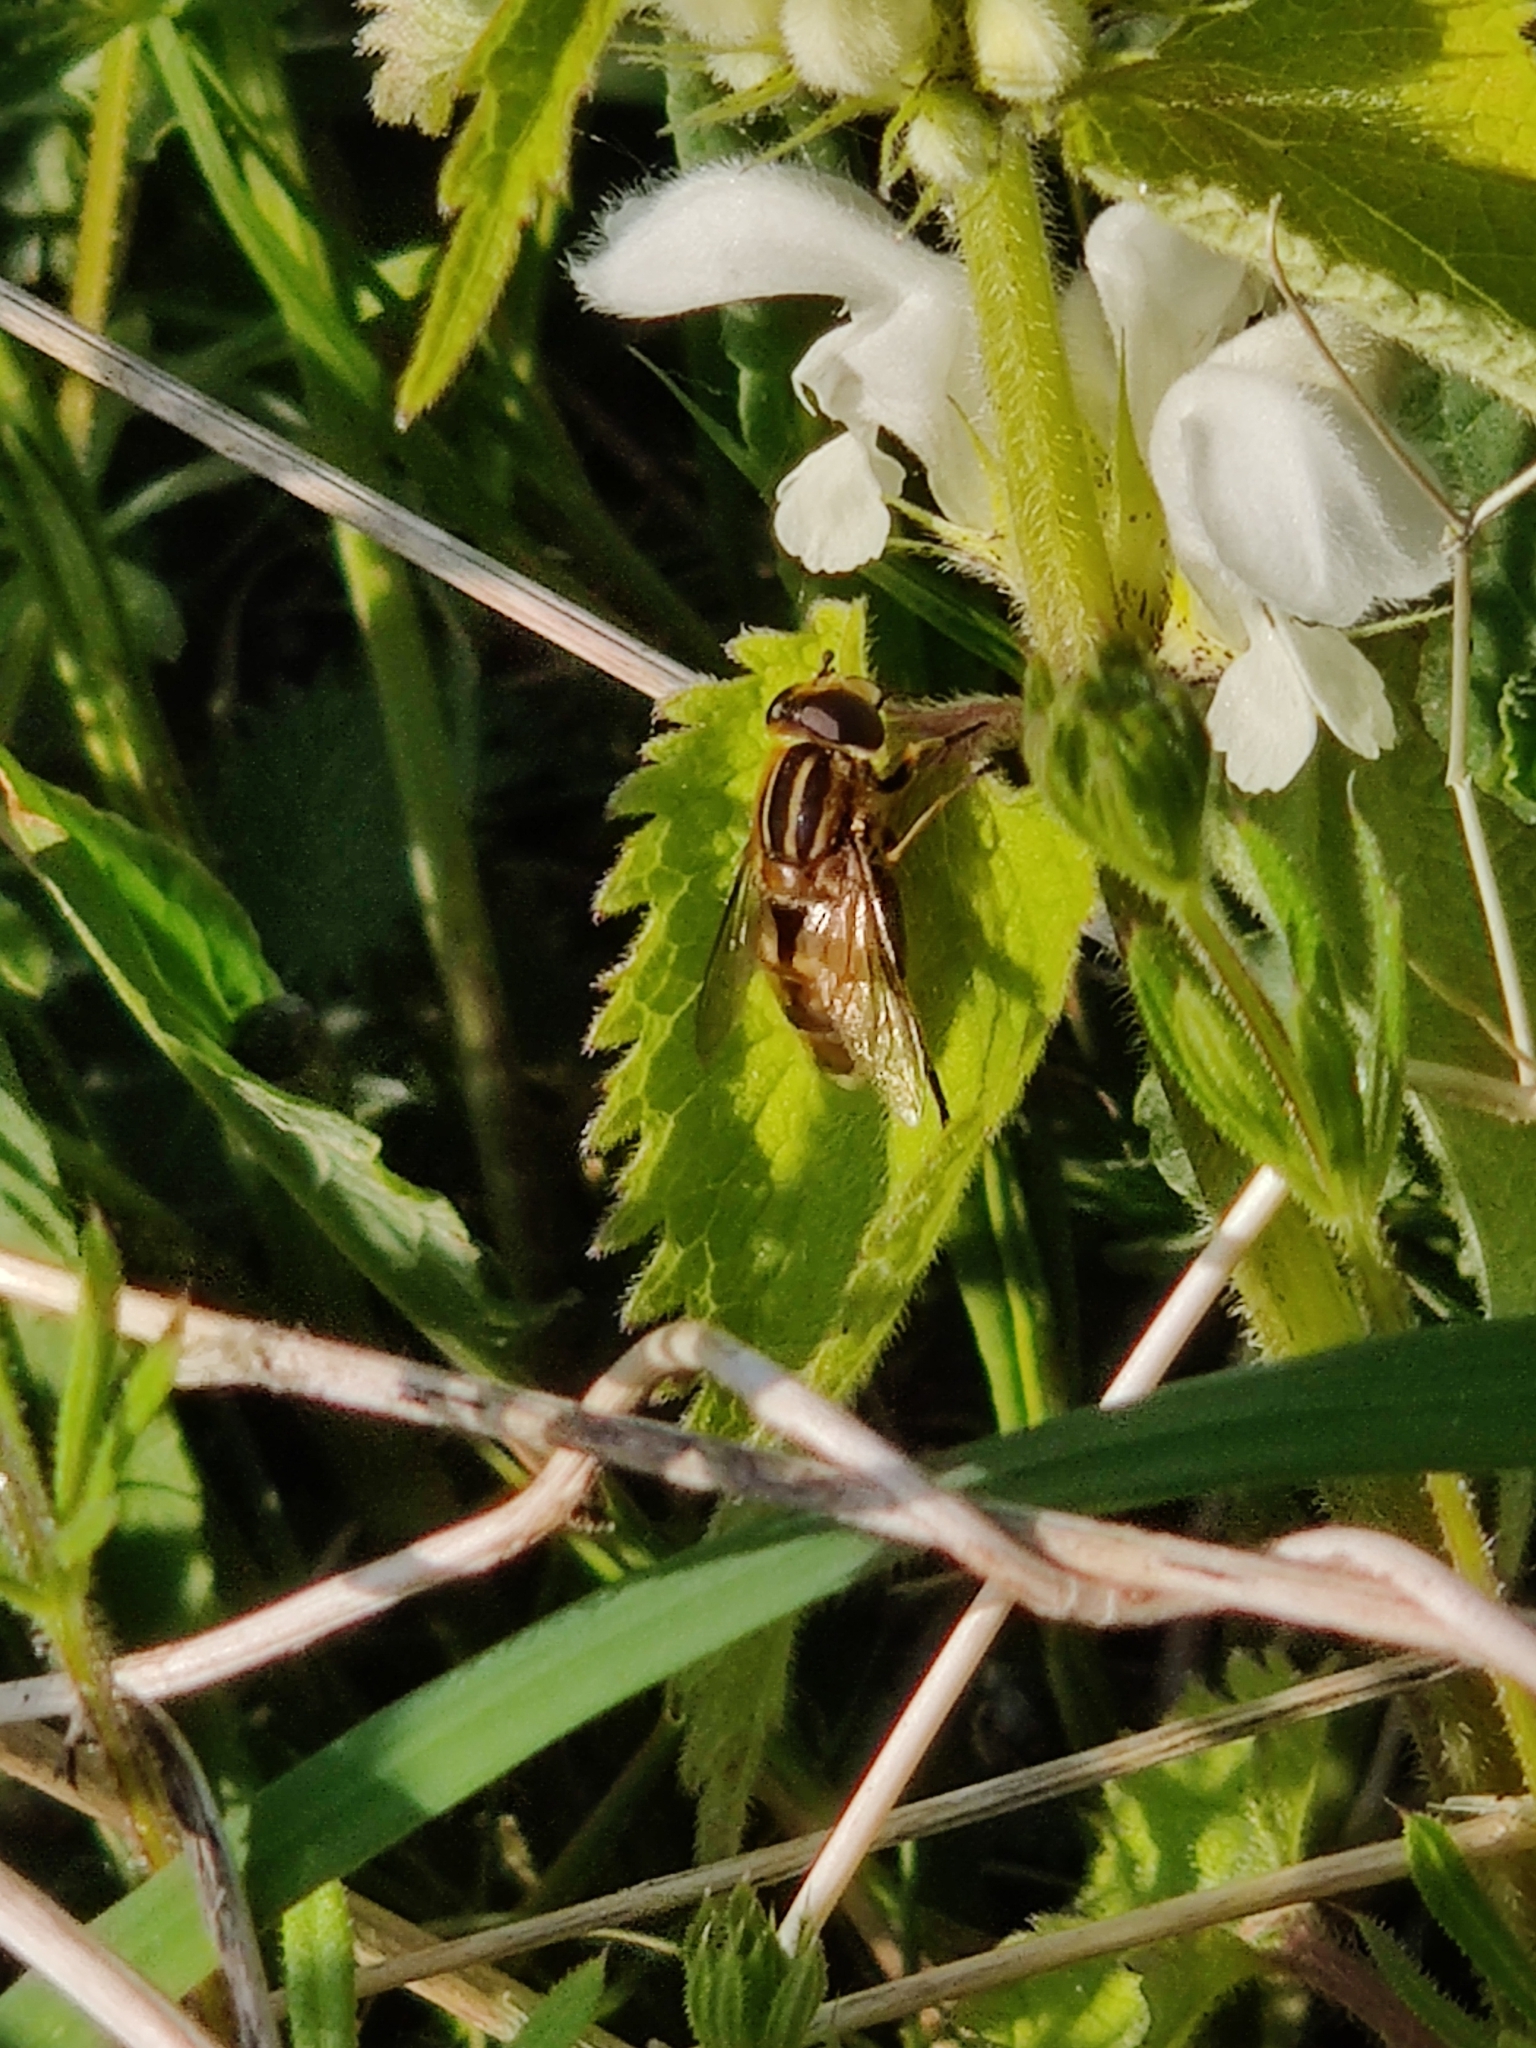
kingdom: Animalia
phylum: Arthropoda
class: Insecta
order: Diptera
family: Syrphidae
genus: Helophilus
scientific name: Helophilus hybridus
